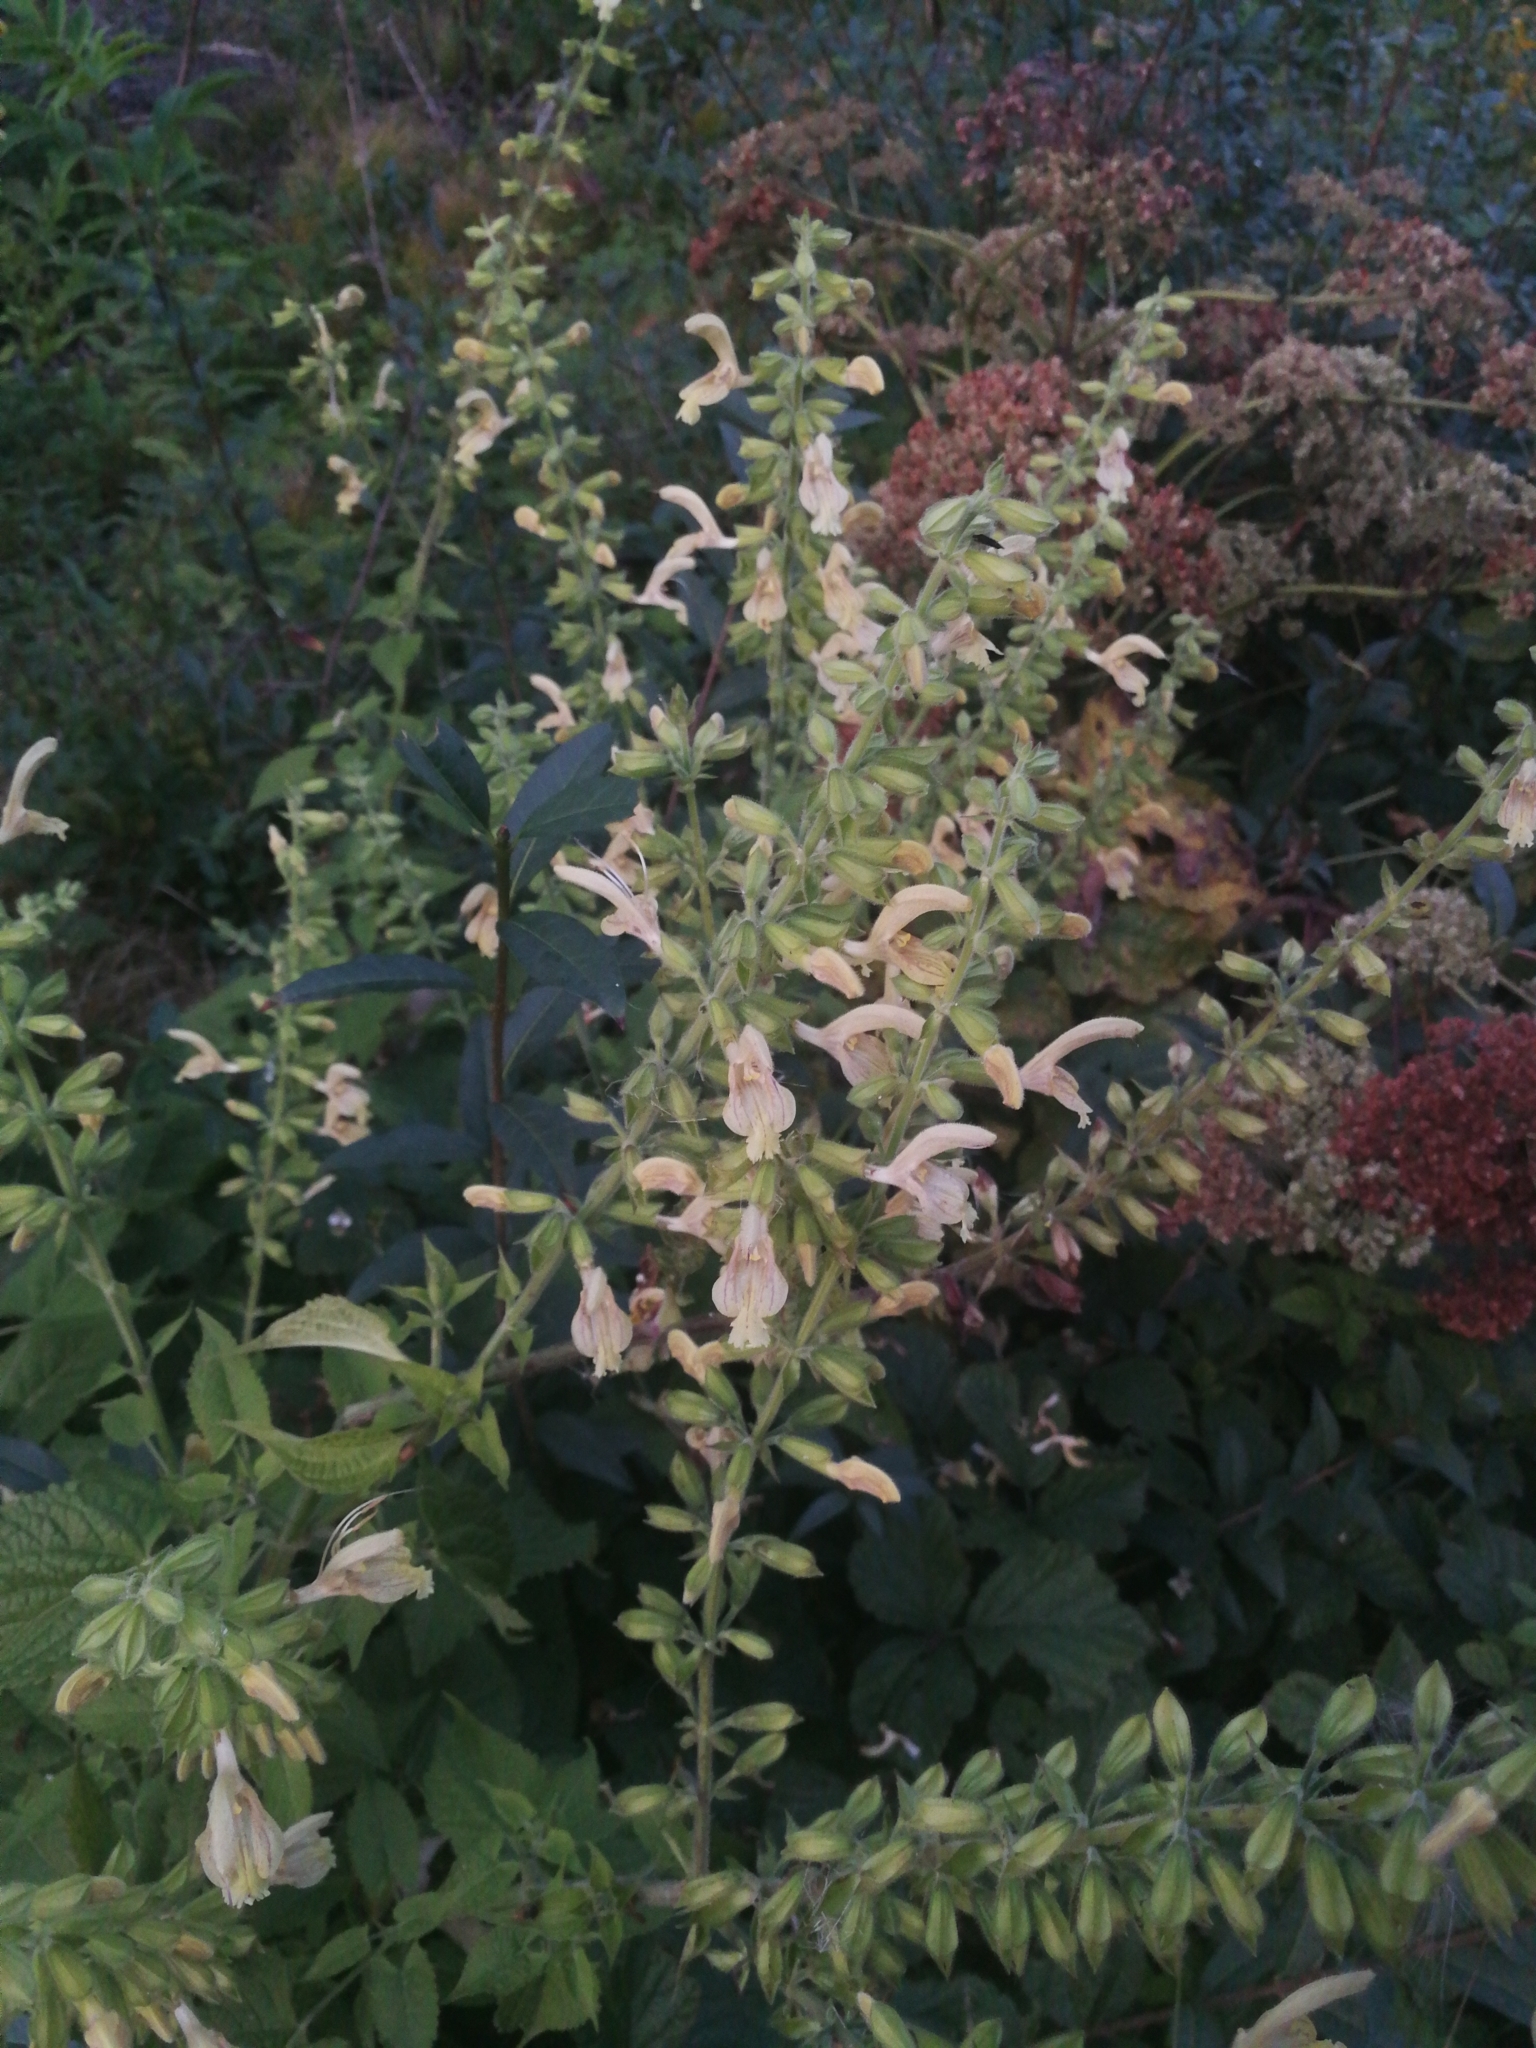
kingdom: Plantae
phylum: Tracheophyta
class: Magnoliopsida
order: Lamiales
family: Lamiaceae
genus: Salvia
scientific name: Salvia glutinosa
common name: Sticky clary
